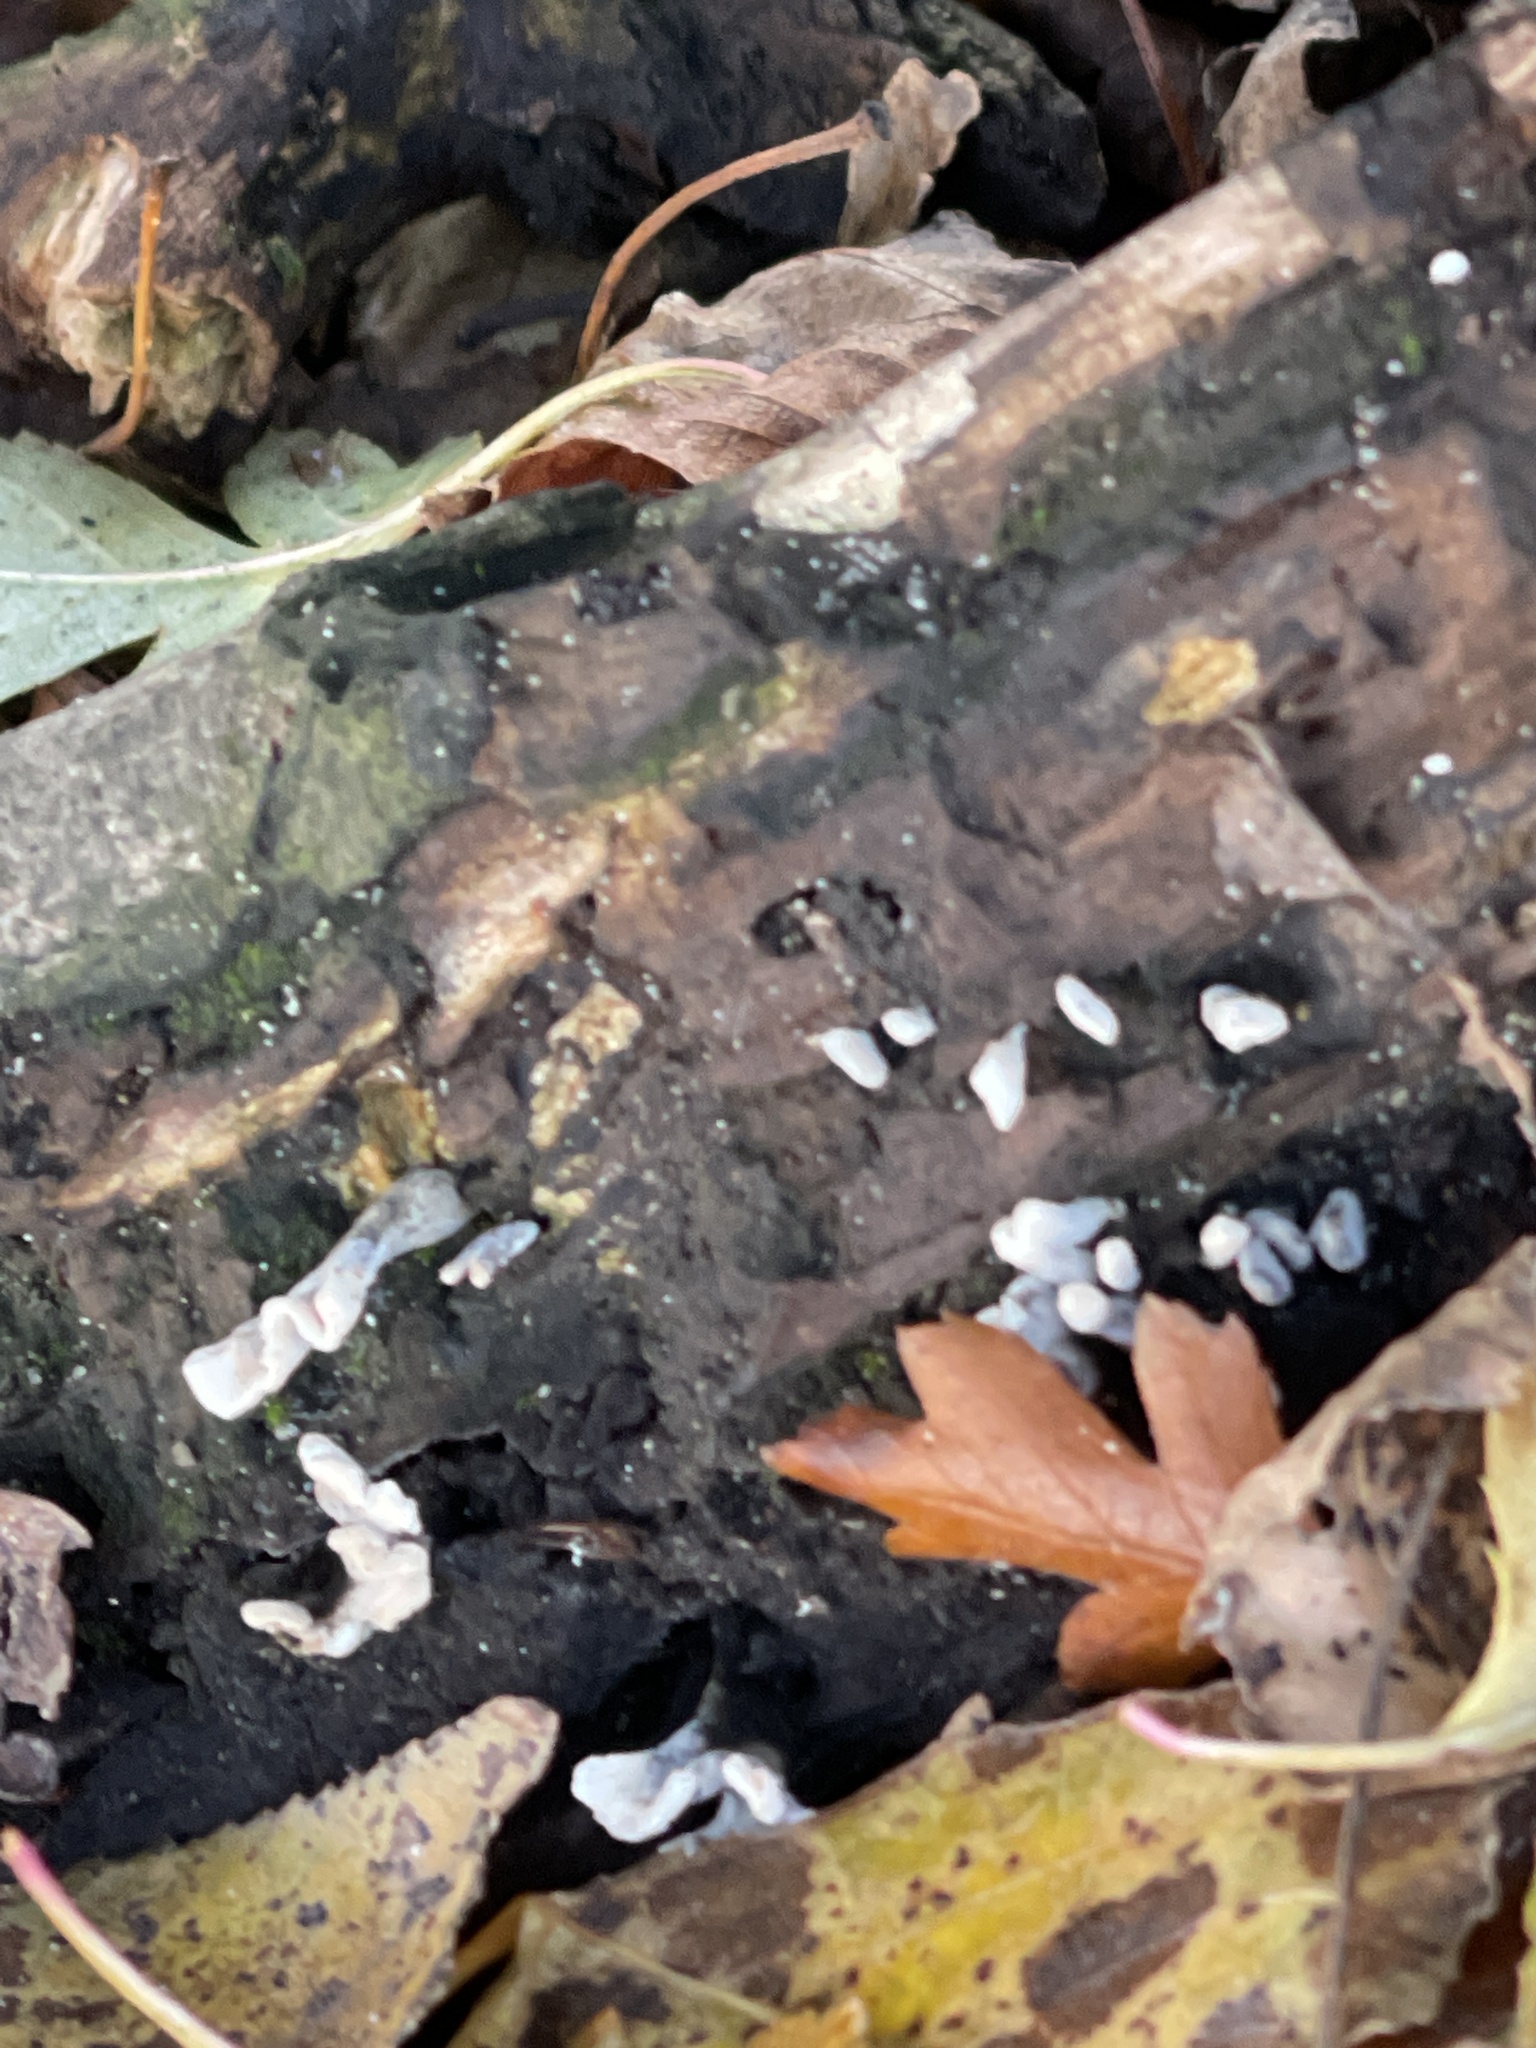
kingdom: Fungi
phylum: Ascomycota
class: Sordariomycetes
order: Xylariales
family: Xylariaceae
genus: Xylaria
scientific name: Xylaria hypoxylon
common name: Candle-snuff fungus
